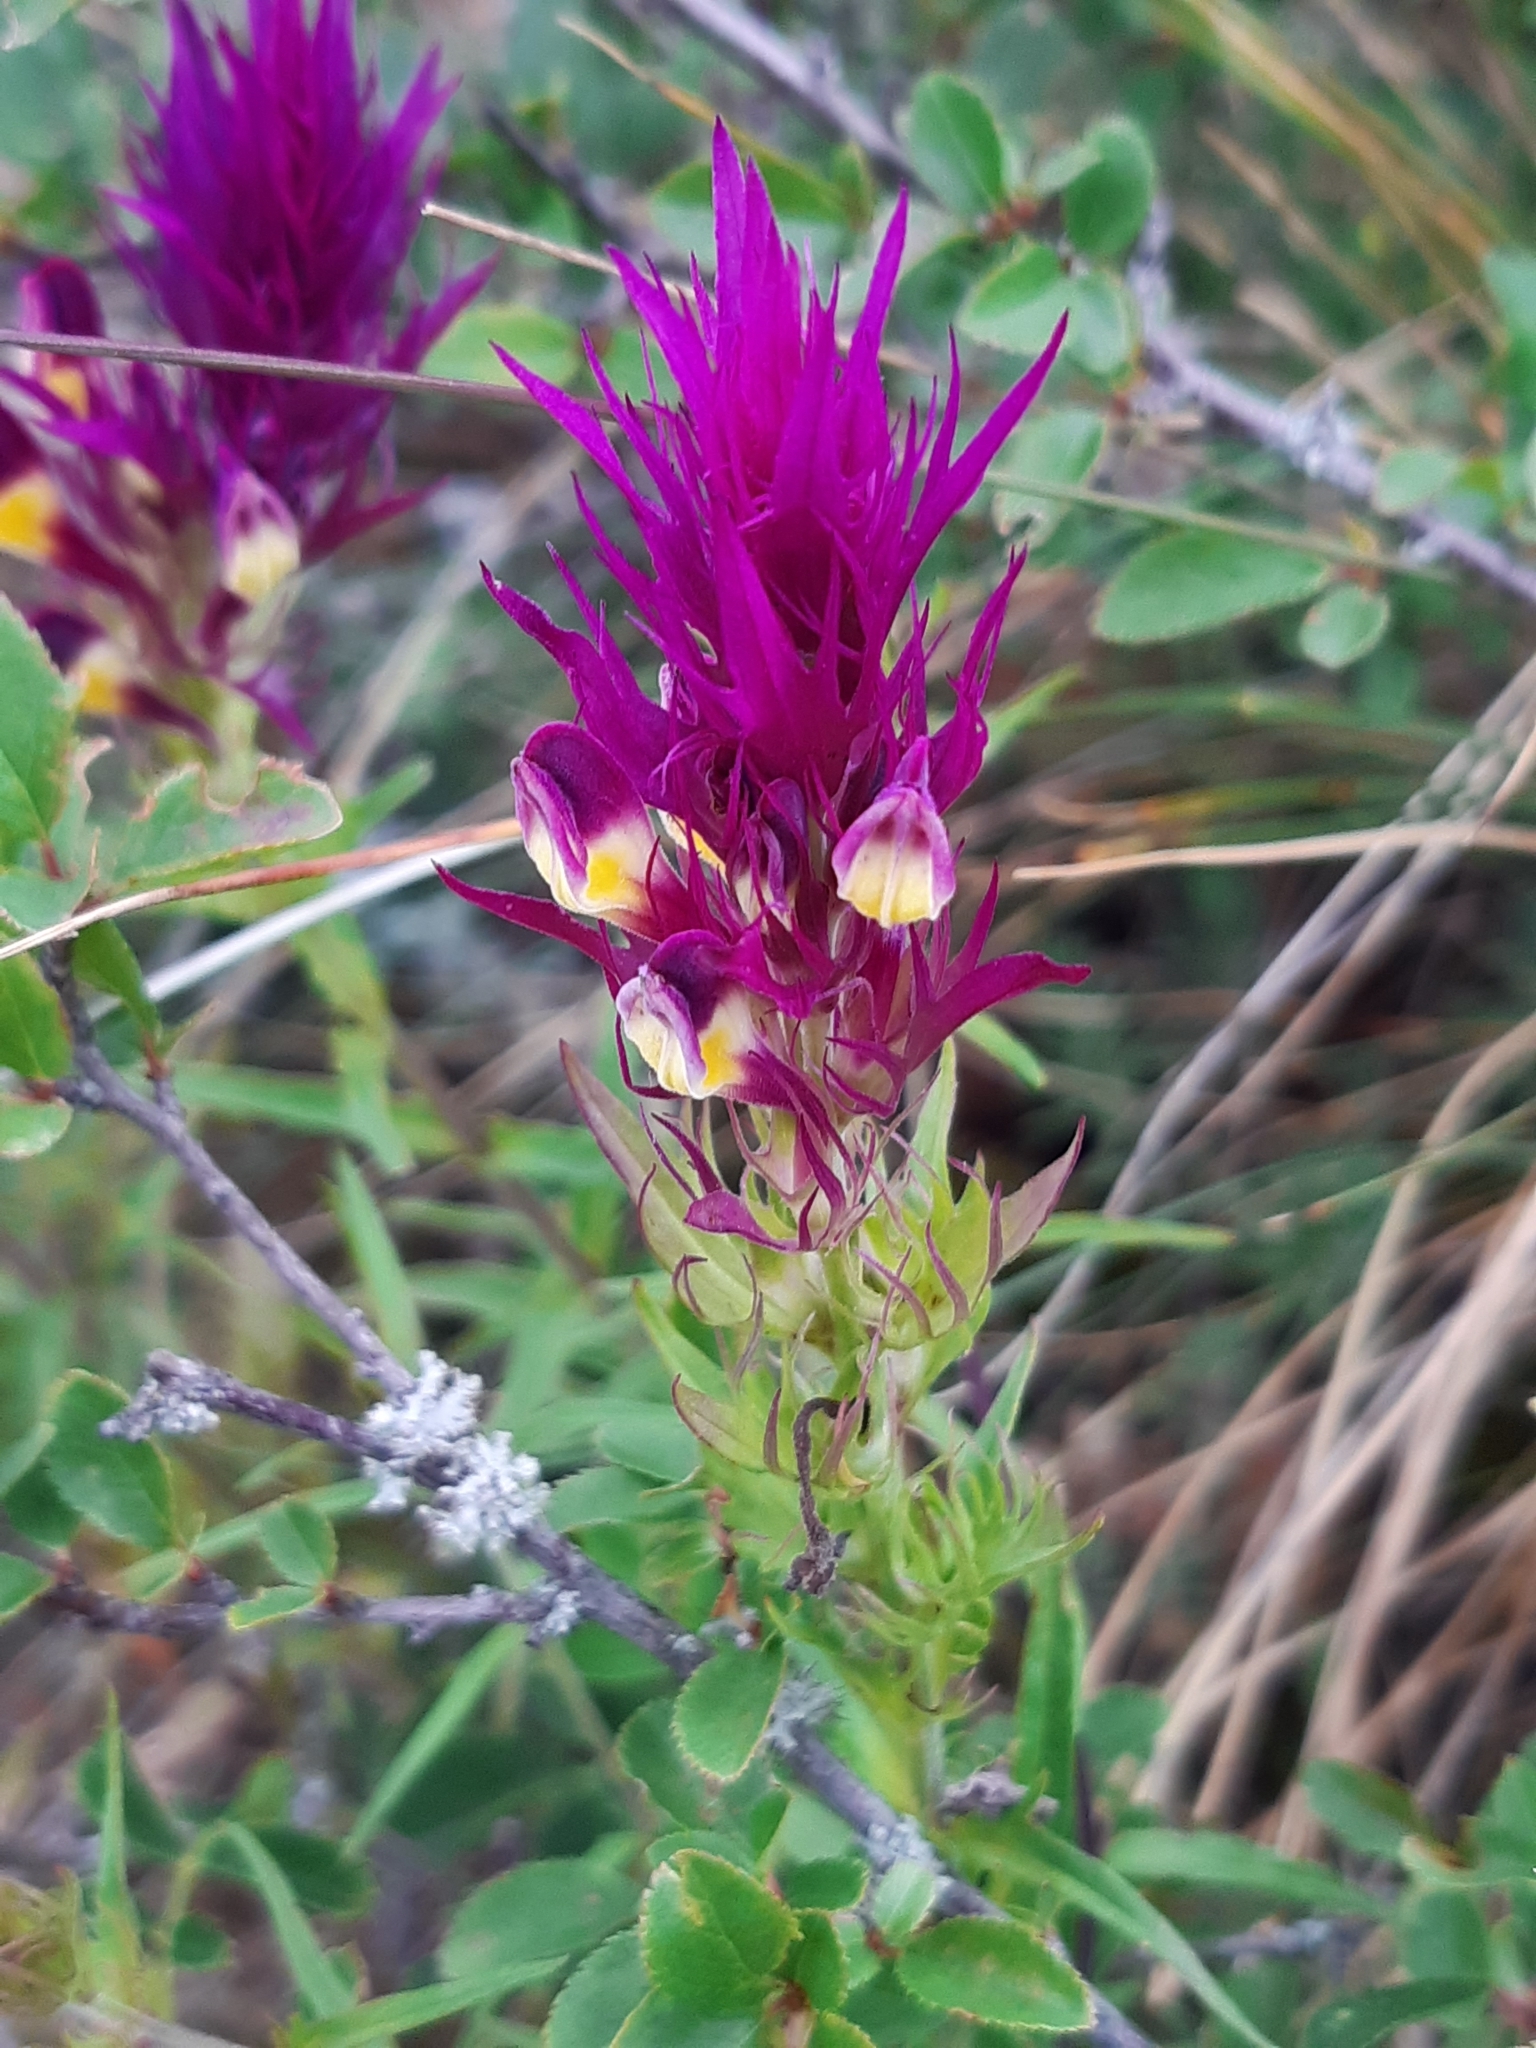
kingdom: Plantae
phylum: Tracheophyta
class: Magnoliopsida
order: Lamiales
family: Orobanchaceae
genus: Melampyrum
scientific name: Melampyrum arvense
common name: Field cow-wheat
